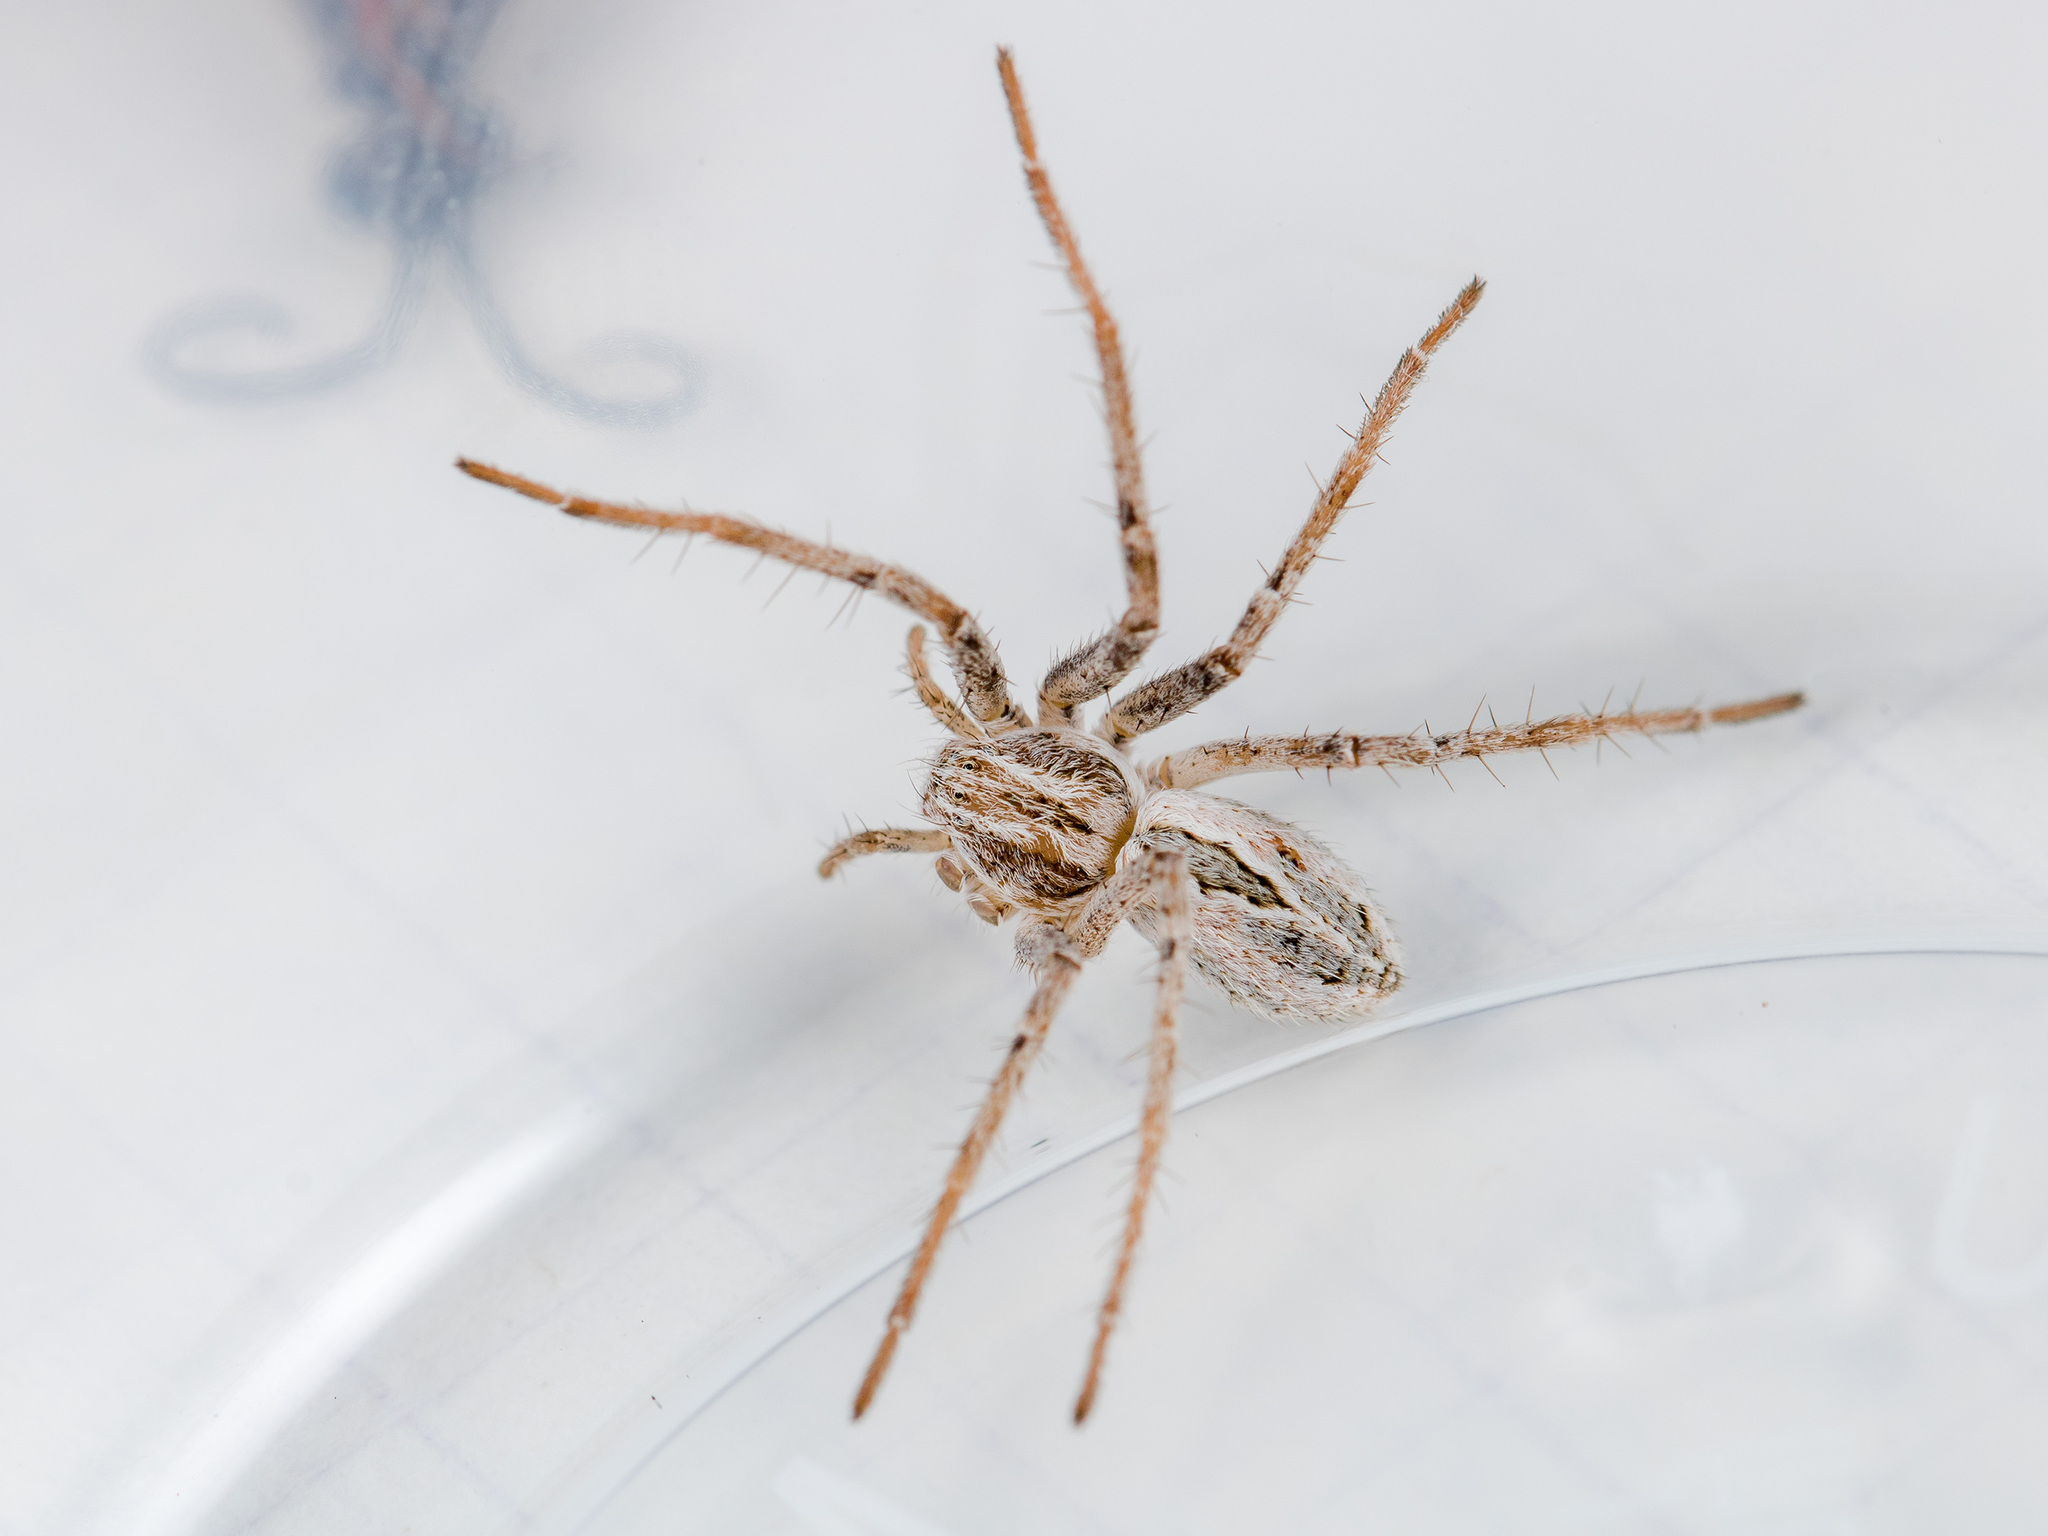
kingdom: Animalia
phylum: Arthropoda
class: Arachnida
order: Araneae
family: Philodromidae
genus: Thanatus
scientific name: Thanatus vulgaris
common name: European running crab spider
